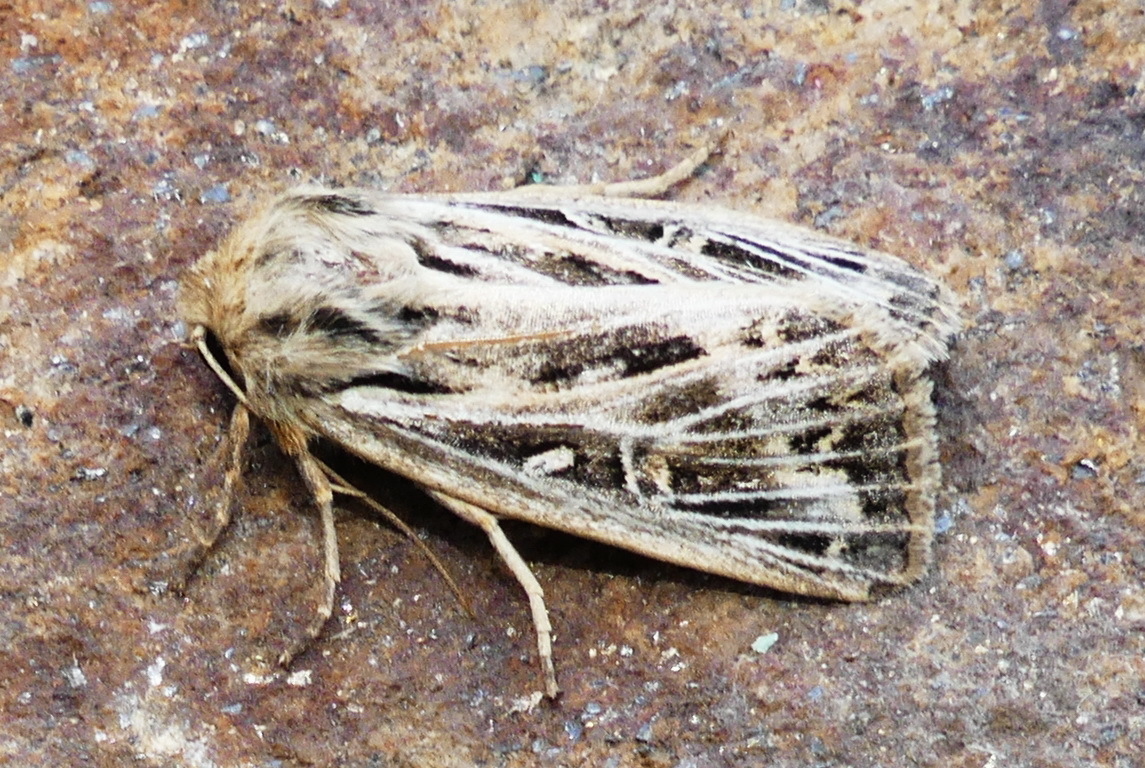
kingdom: Animalia
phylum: Arthropoda
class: Insecta
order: Lepidoptera
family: Noctuidae
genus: Apamea
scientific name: Apamea niveivenosa
